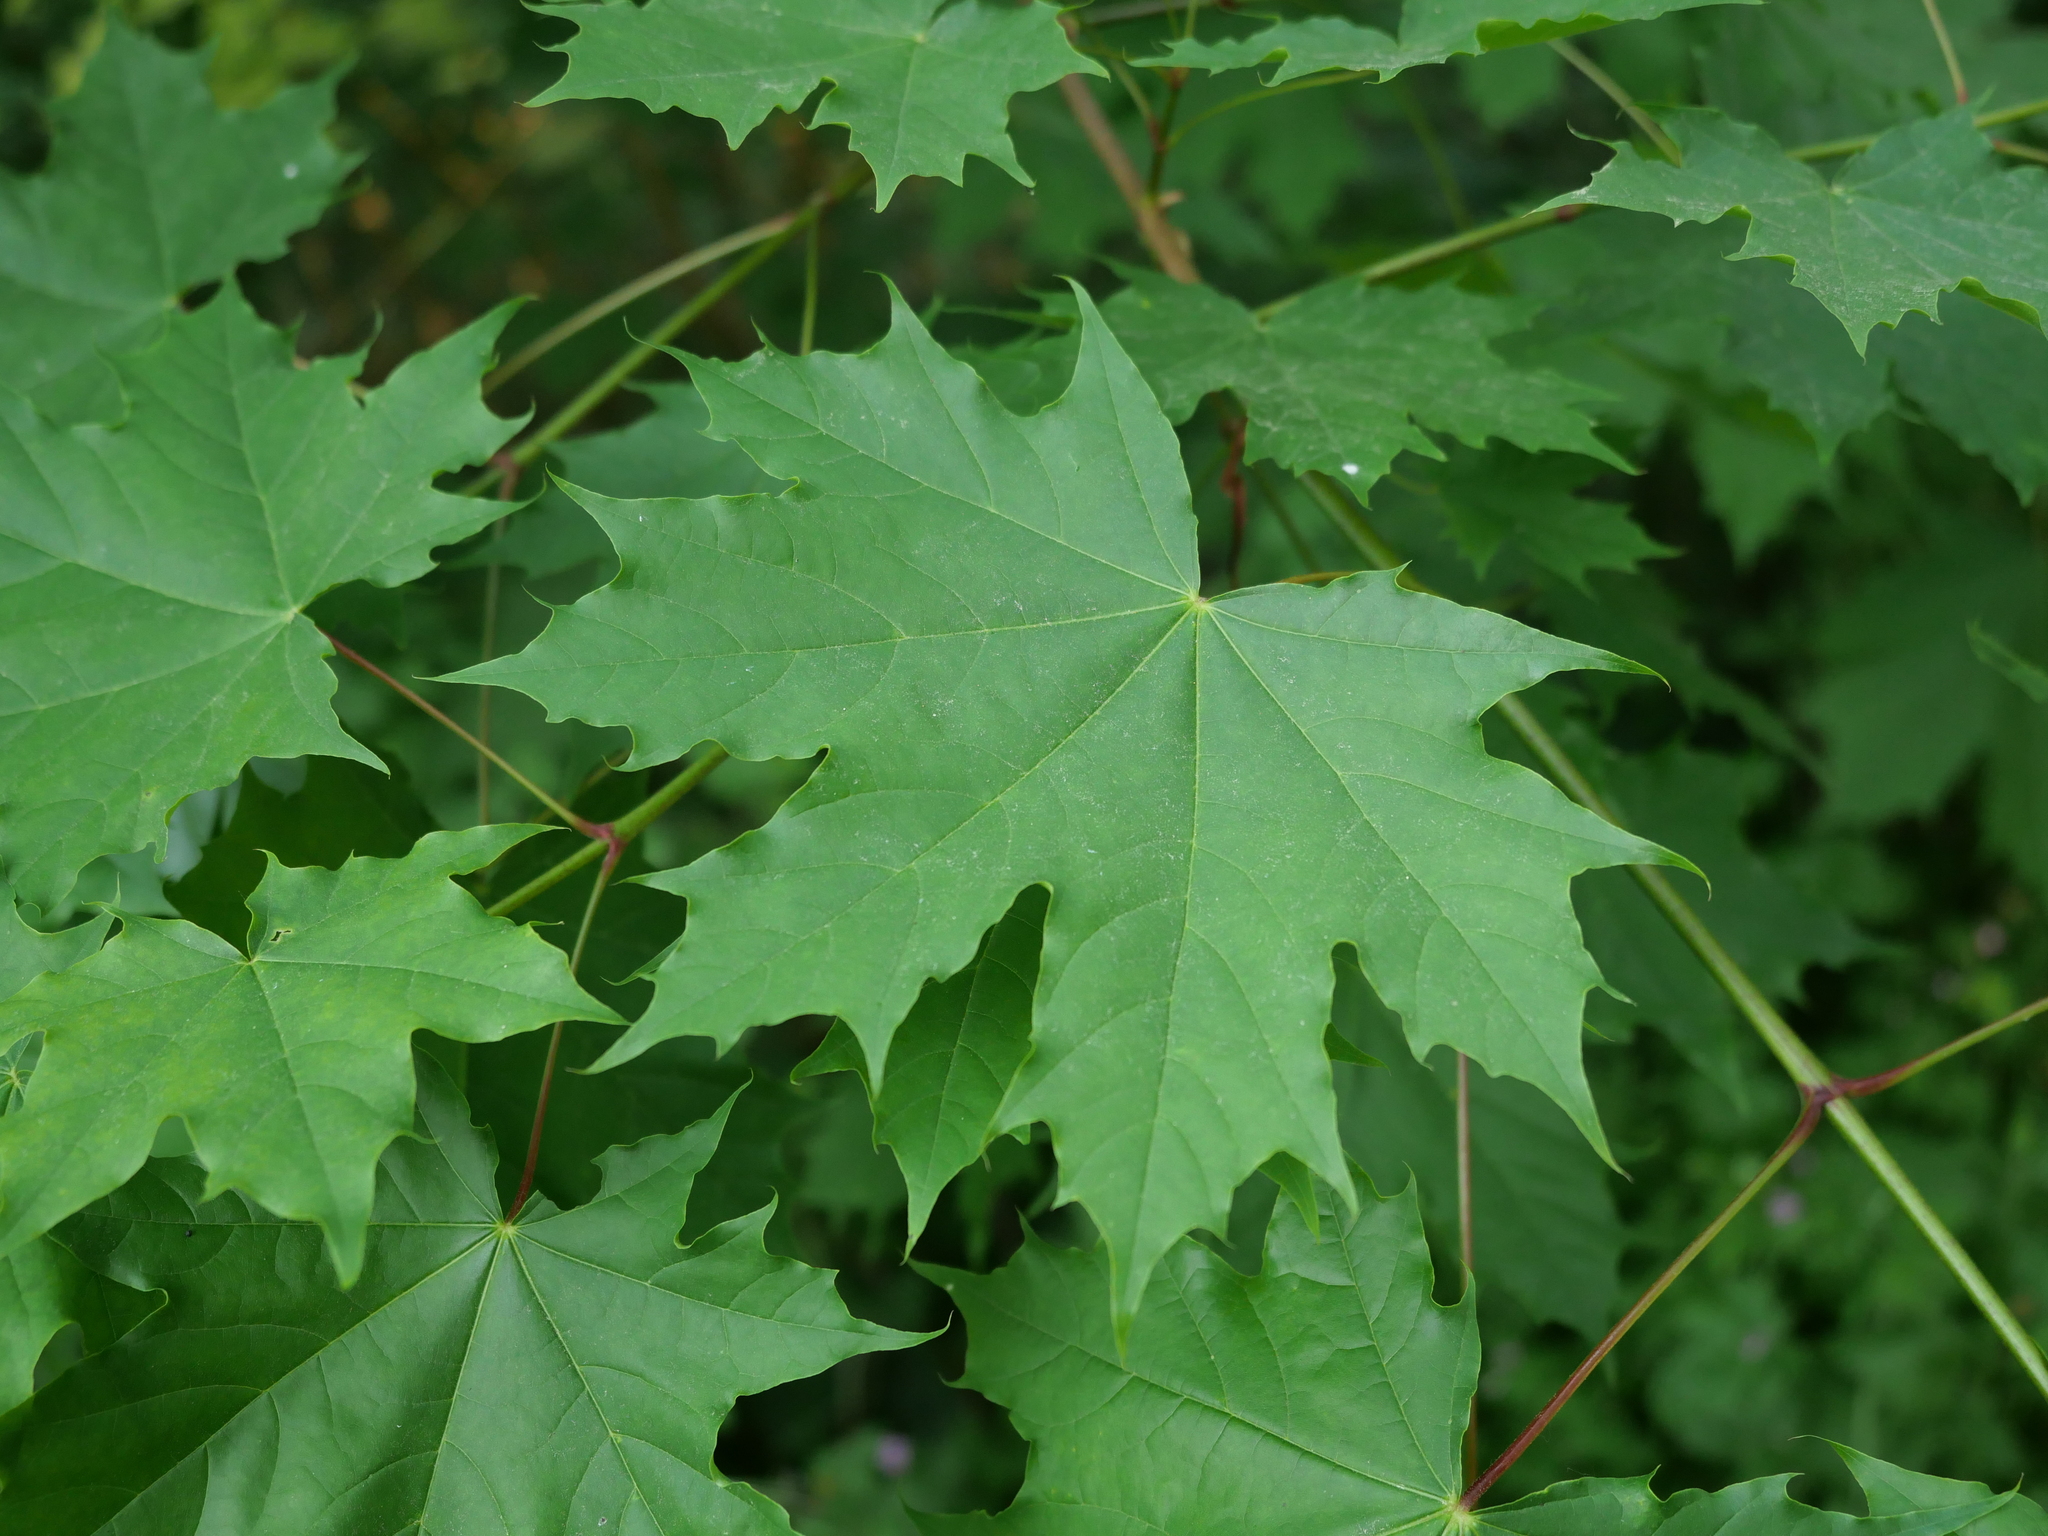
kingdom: Plantae
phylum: Tracheophyta
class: Magnoliopsida
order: Sapindales
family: Sapindaceae
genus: Acer
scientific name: Acer platanoides
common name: Norway maple
